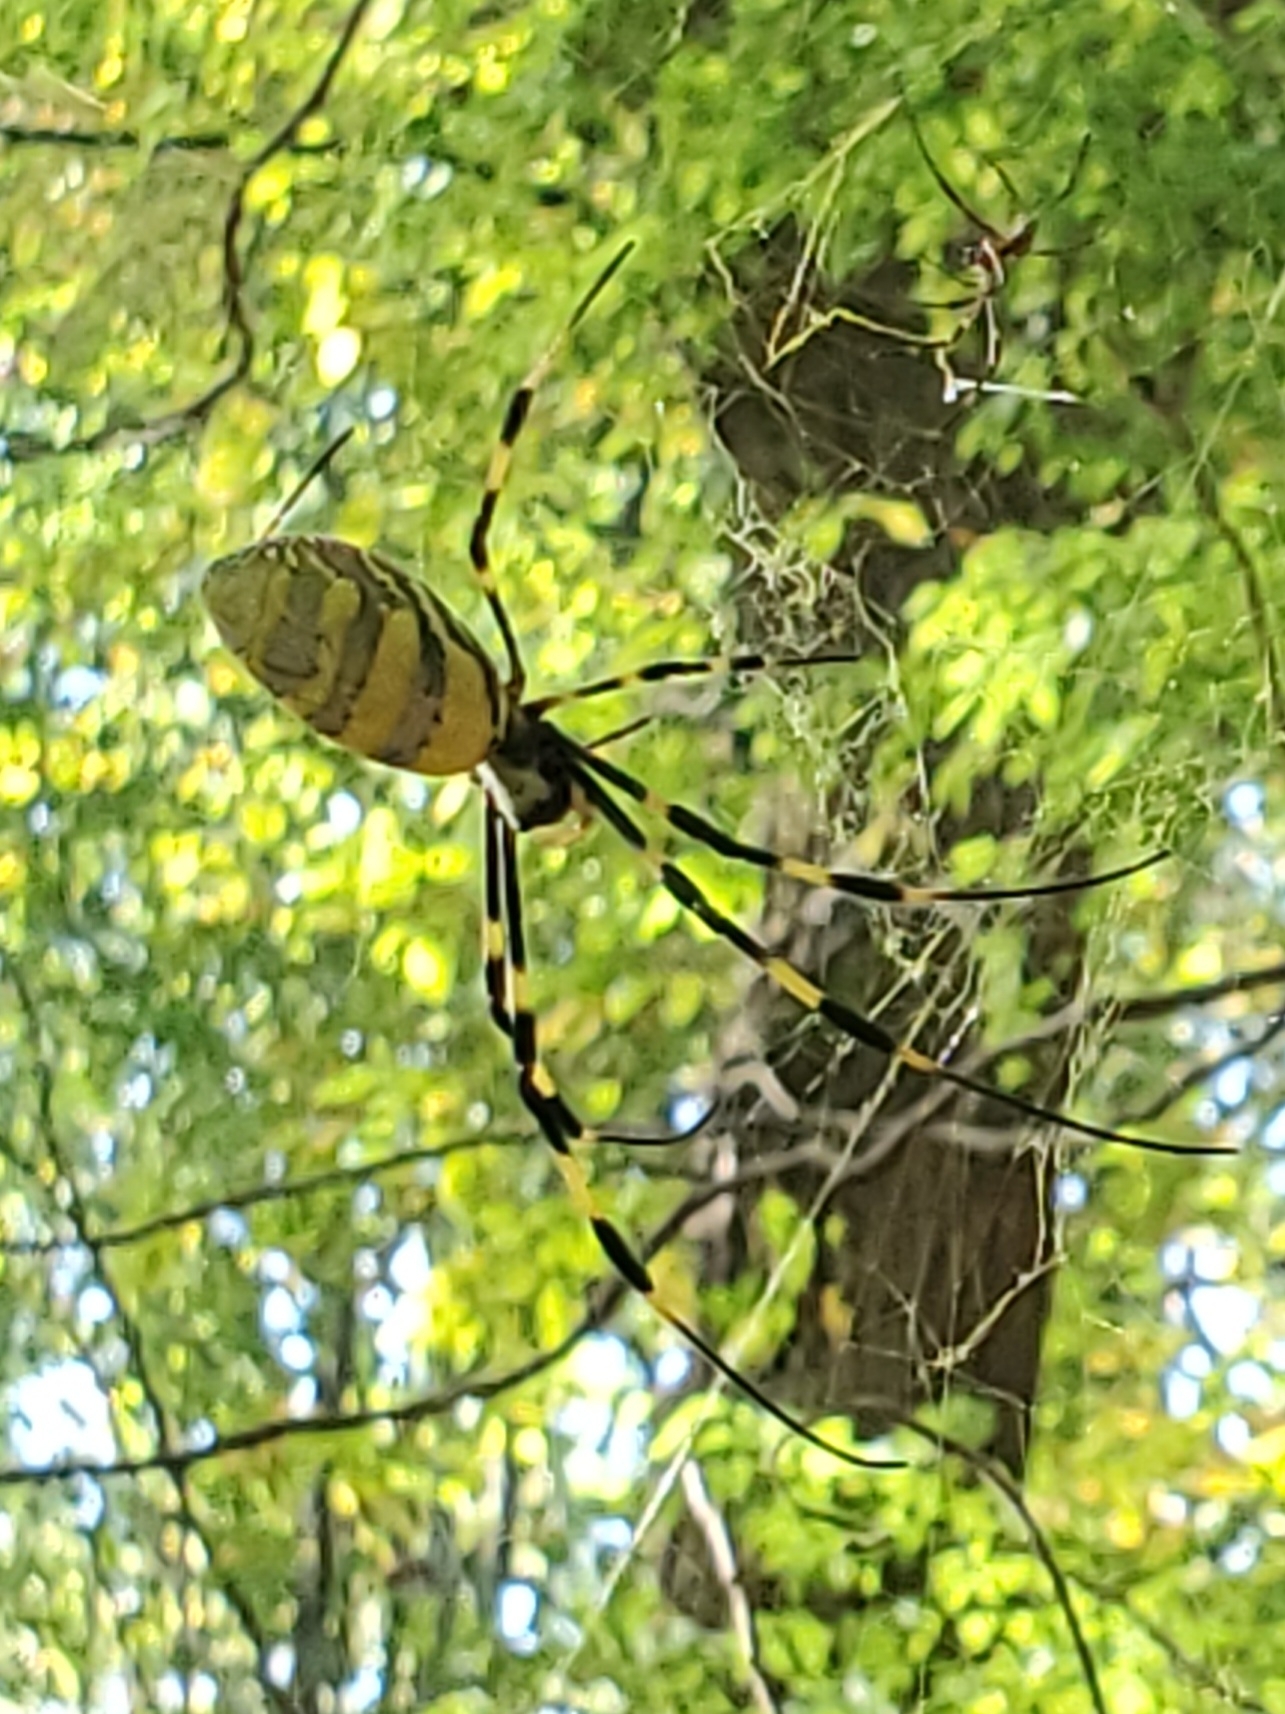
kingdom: Animalia
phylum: Arthropoda
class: Arachnida
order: Araneae
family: Araneidae
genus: Trichonephila
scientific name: Trichonephila clavata
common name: Jorō spider
